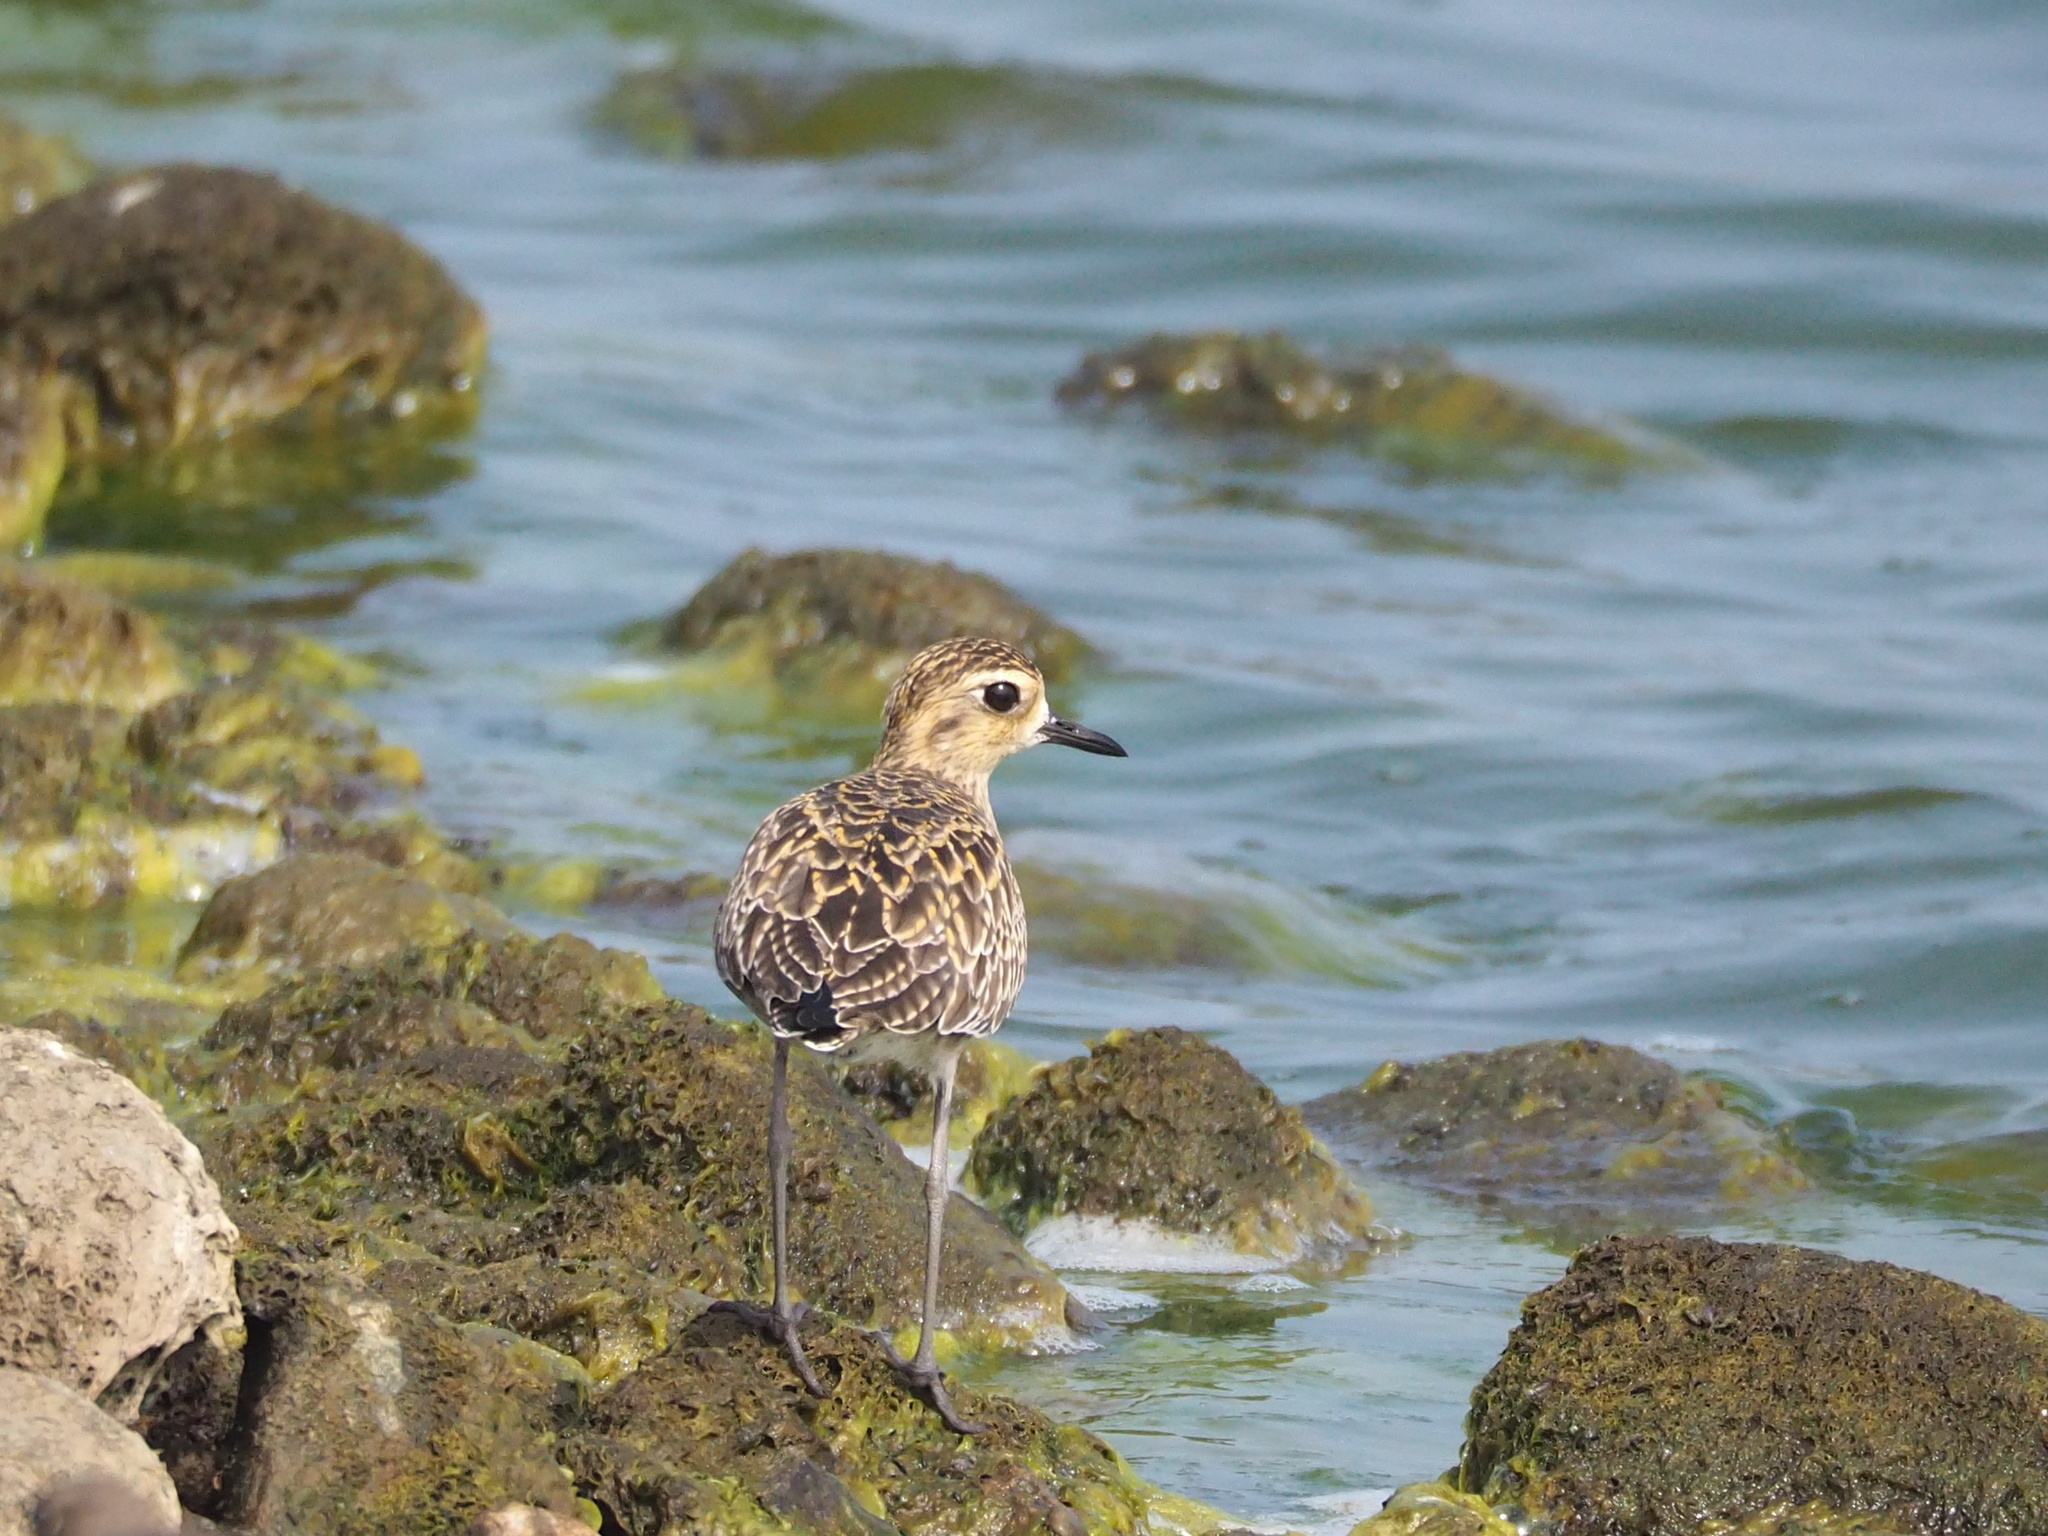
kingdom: Animalia
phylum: Chordata
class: Aves
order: Charadriiformes
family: Charadriidae
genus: Pluvialis
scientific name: Pluvialis fulva
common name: Pacific golden plover
